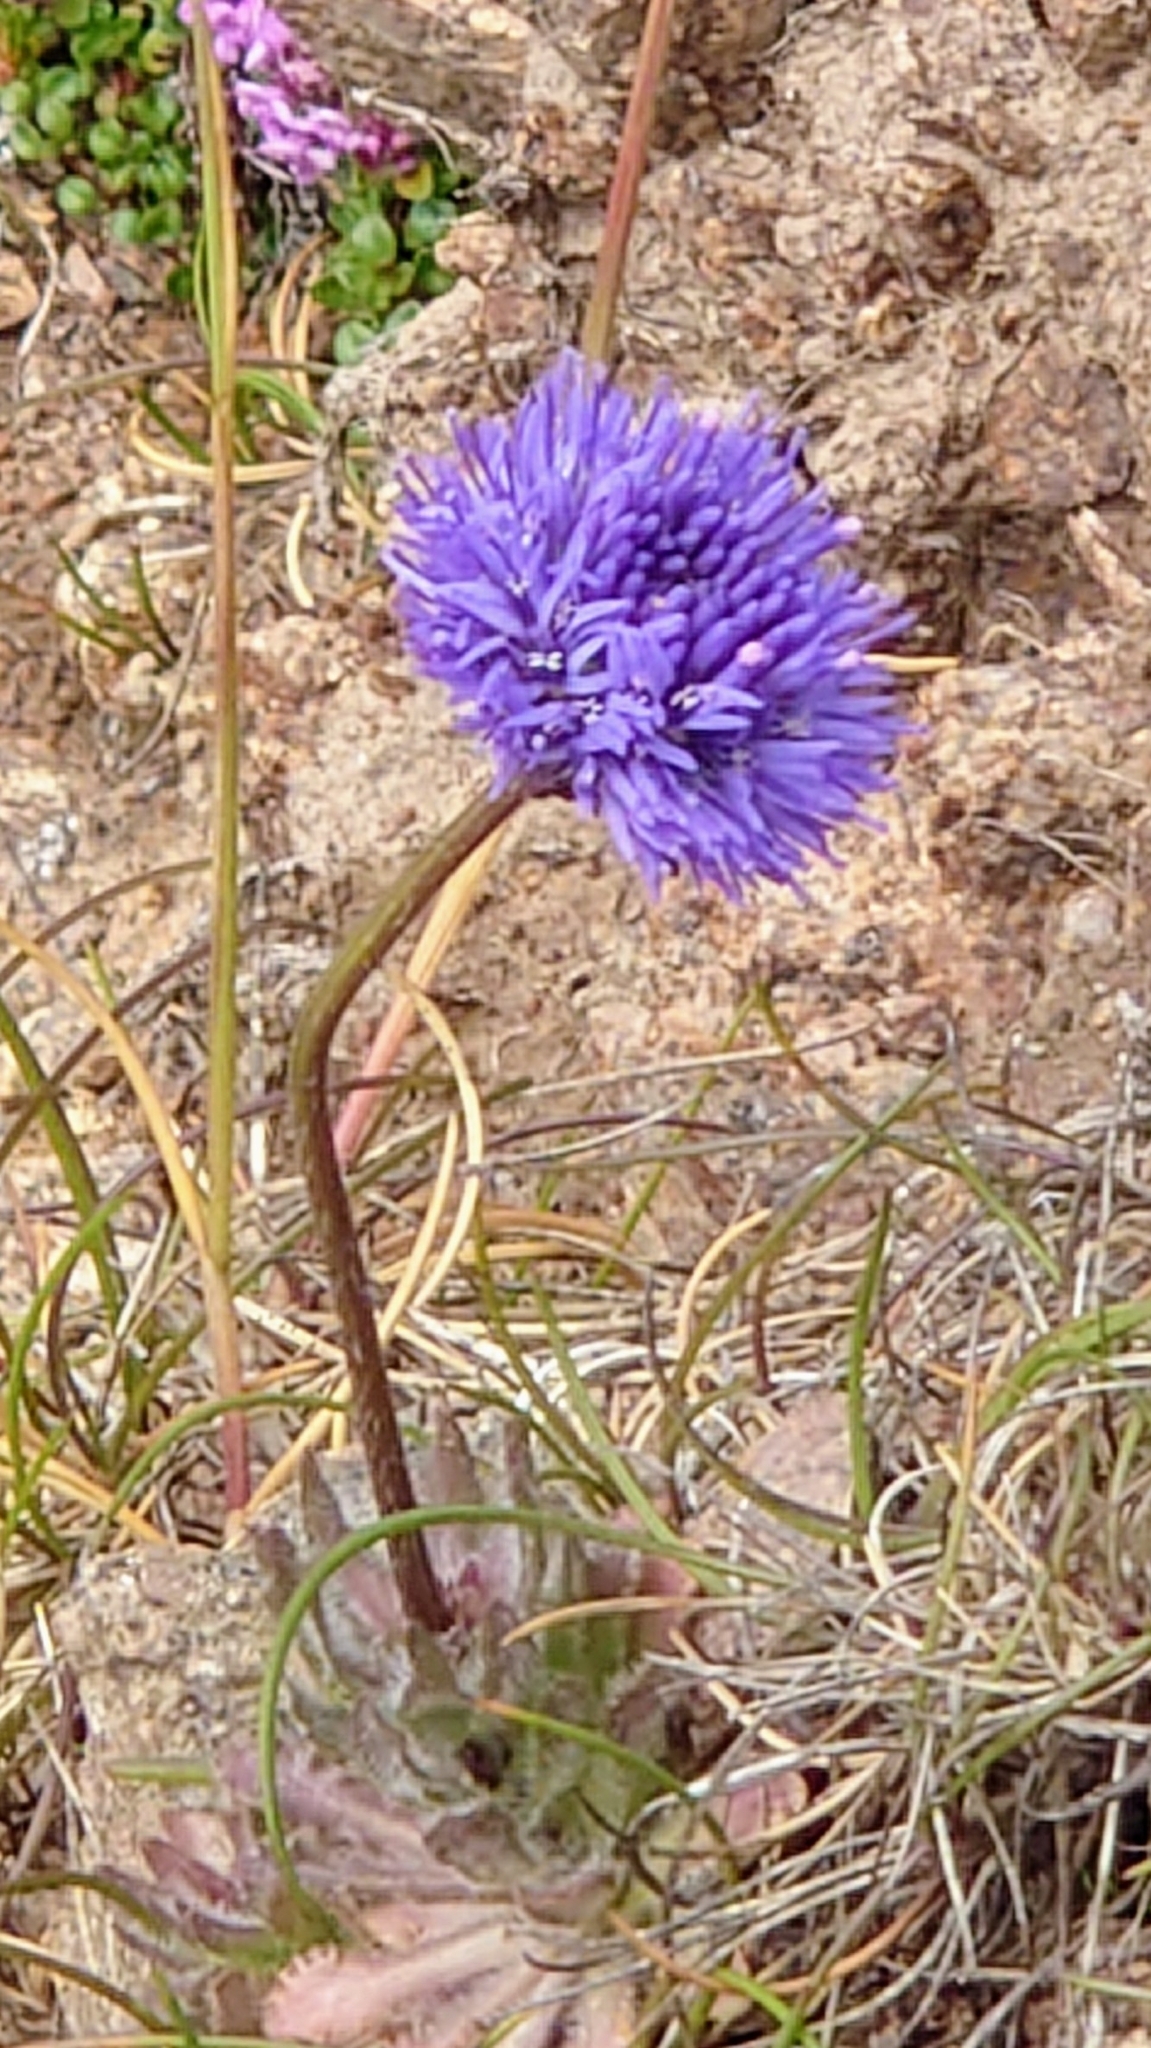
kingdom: Plantae
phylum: Tracheophyta
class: Magnoliopsida
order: Asterales
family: Campanulaceae
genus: Jasione
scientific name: Jasione montana
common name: Sheep's-bit
